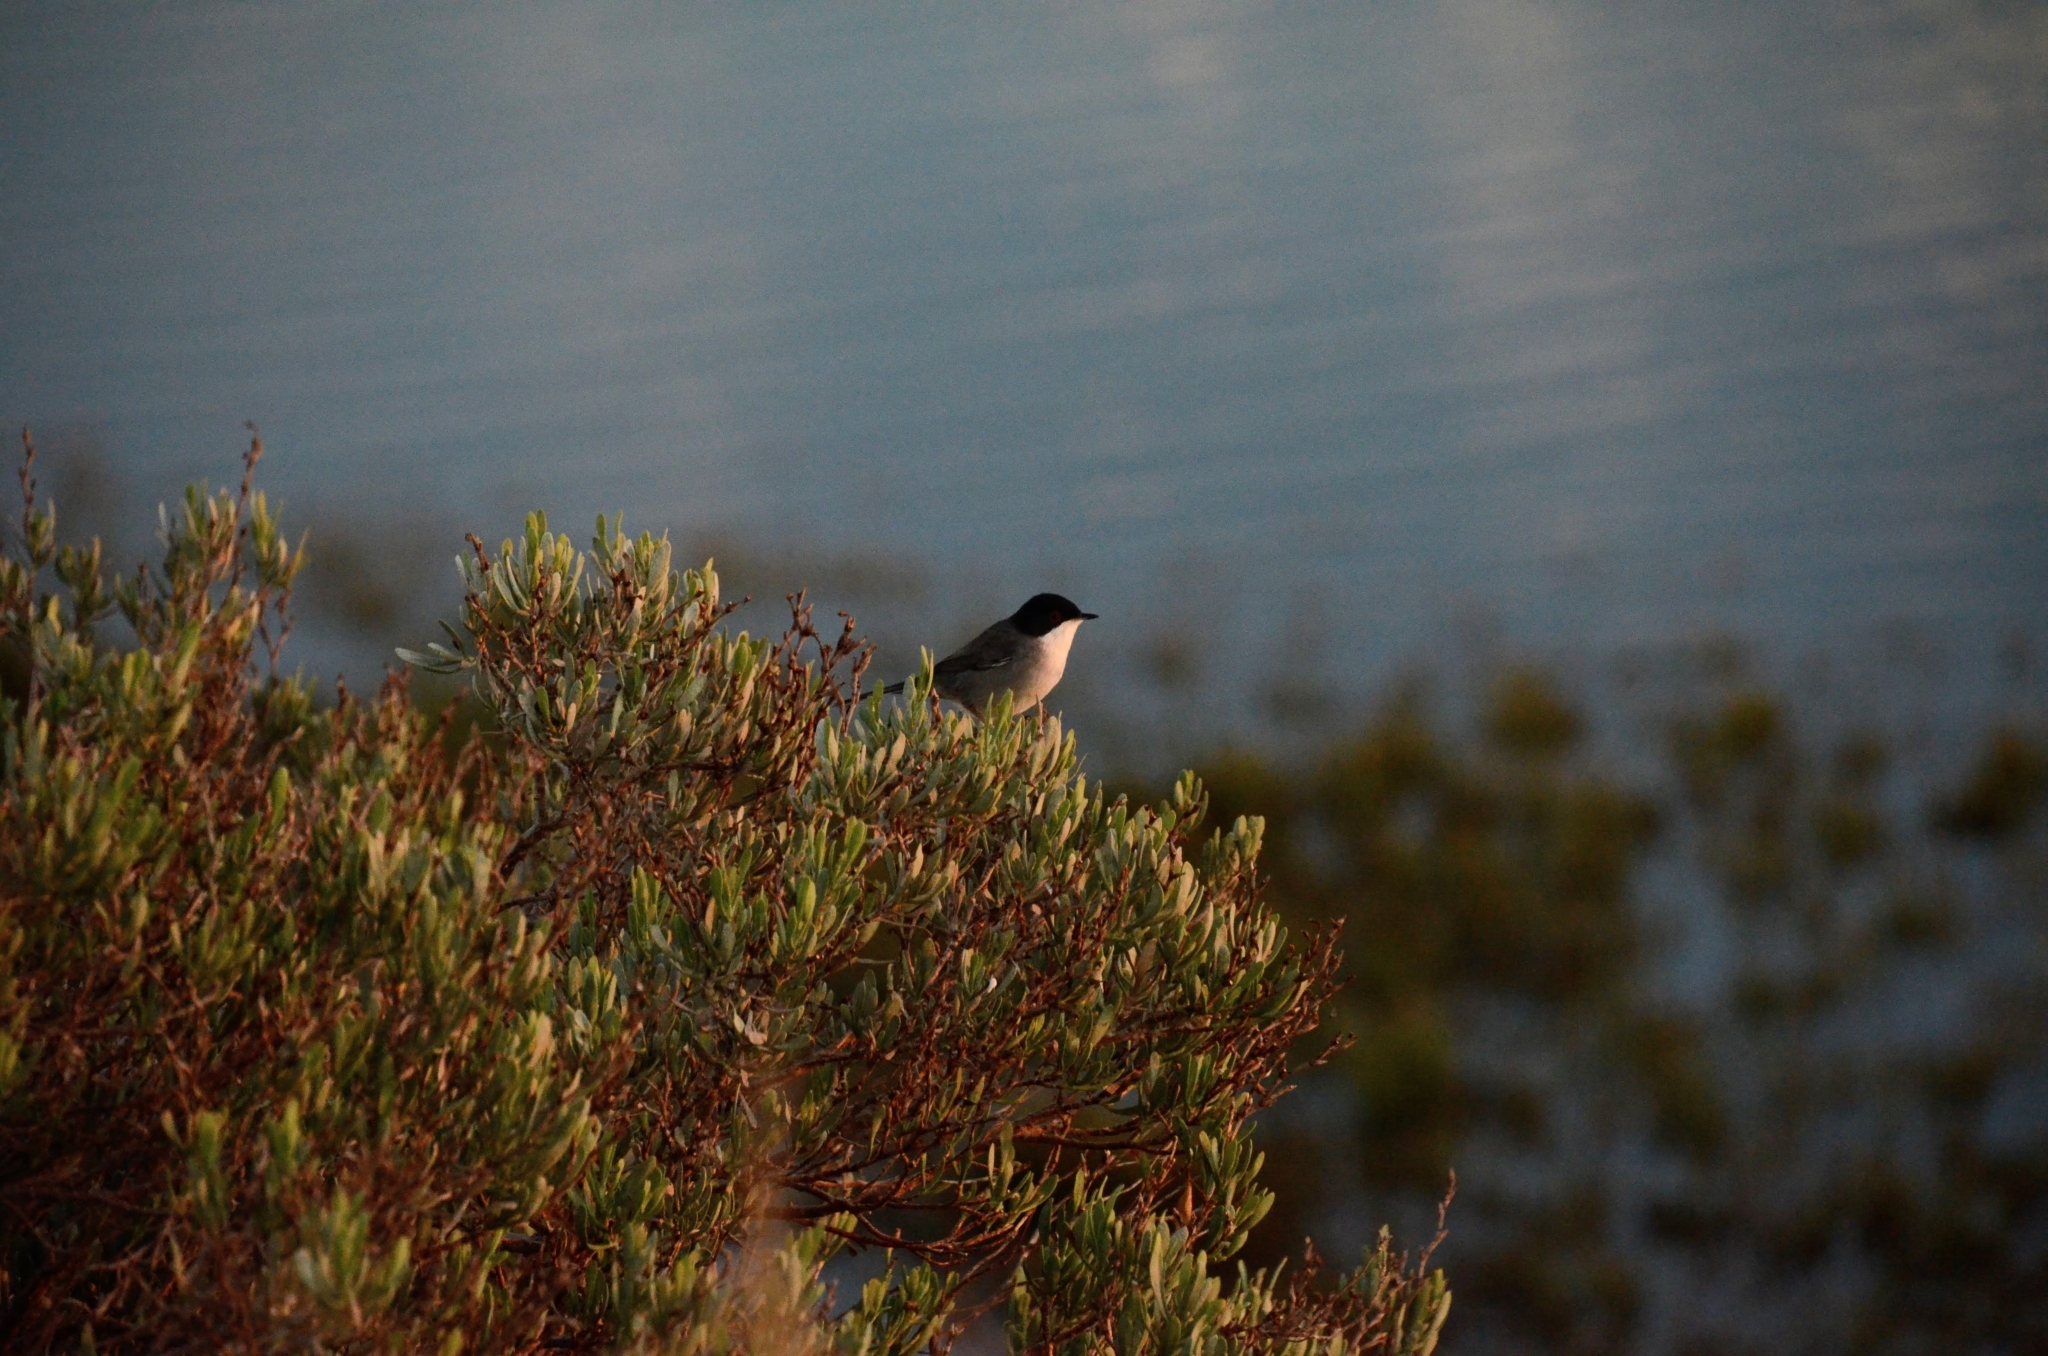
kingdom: Animalia
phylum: Chordata
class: Aves
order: Passeriformes
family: Sylviidae
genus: Curruca
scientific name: Curruca melanocephala
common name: Sardinian warbler
